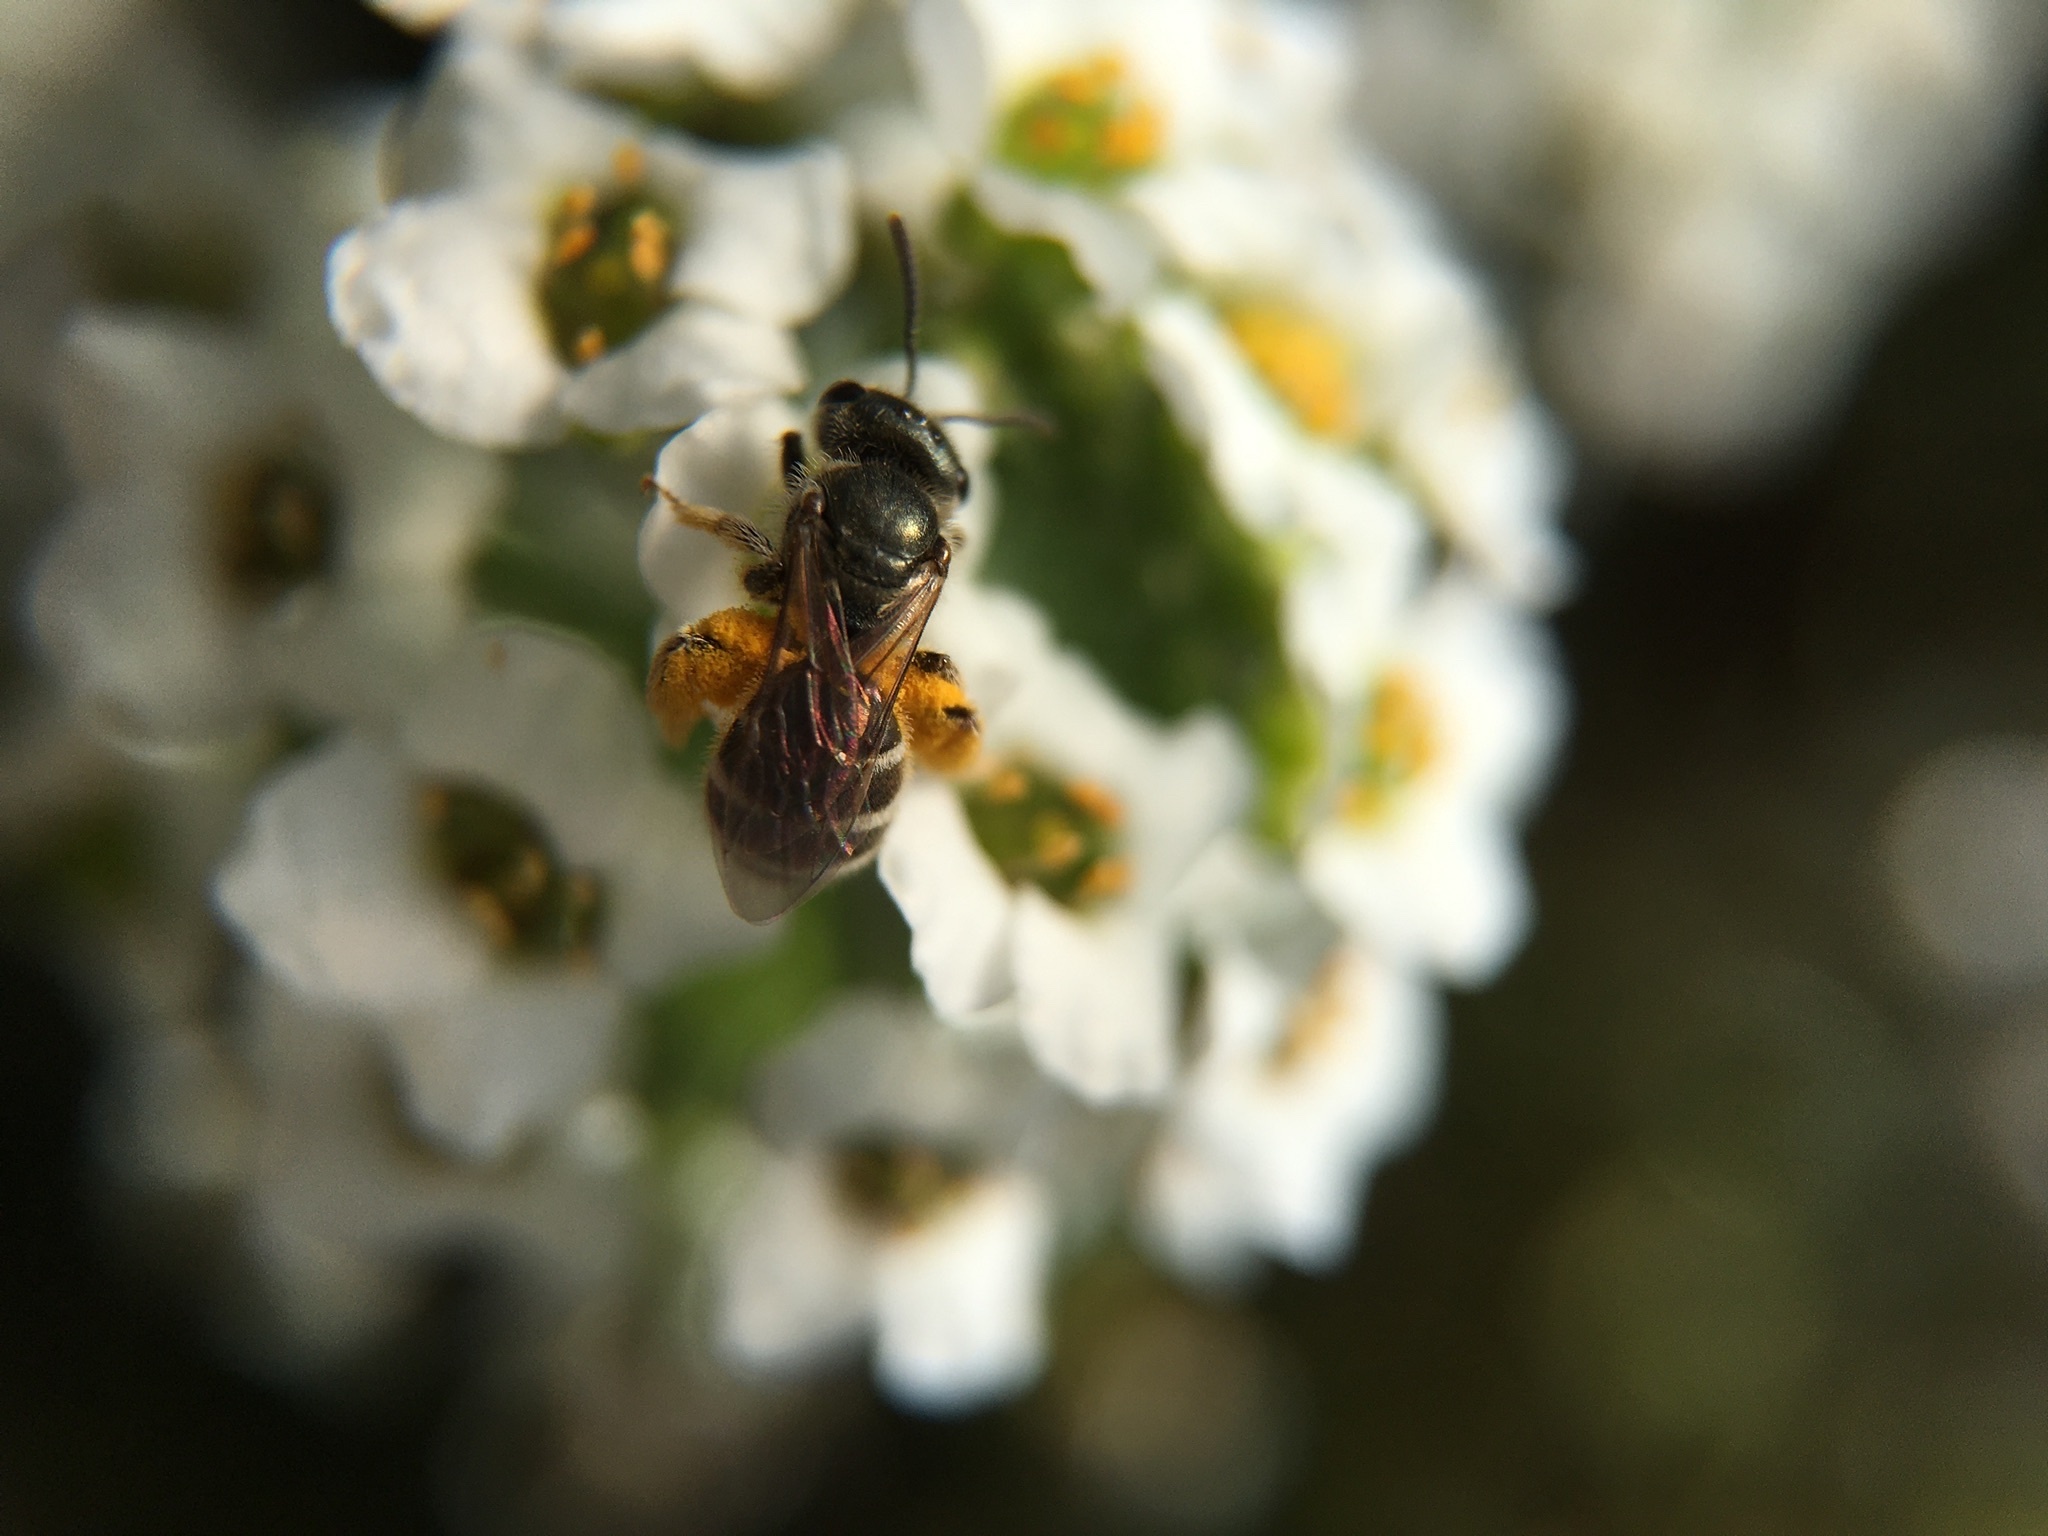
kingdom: Animalia
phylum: Arthropoda
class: Insecta
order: Hymenoptera
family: Halictidae
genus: Halictus
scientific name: Halictus tripartitus
